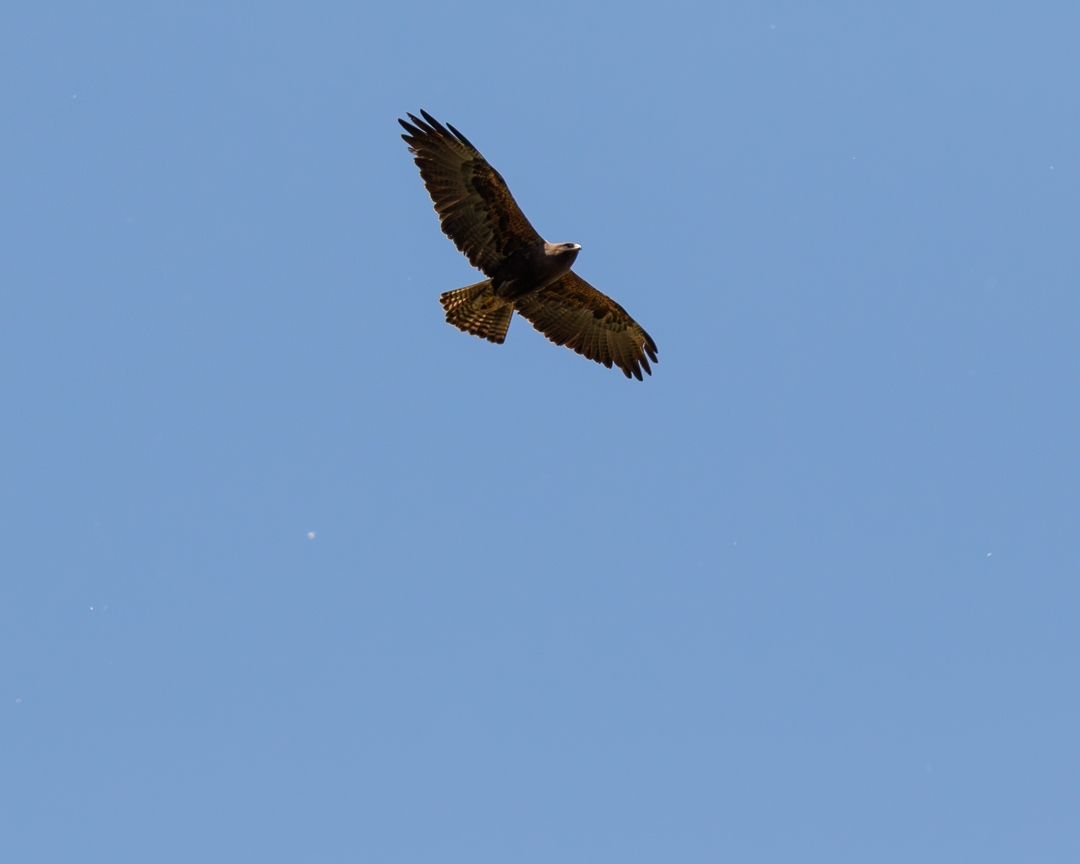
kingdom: Animalia
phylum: Chordata
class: Aves
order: Accipitriformes
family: Accipitridae
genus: Buteo
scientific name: Buteo swainsoni
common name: Swainson's hawk
